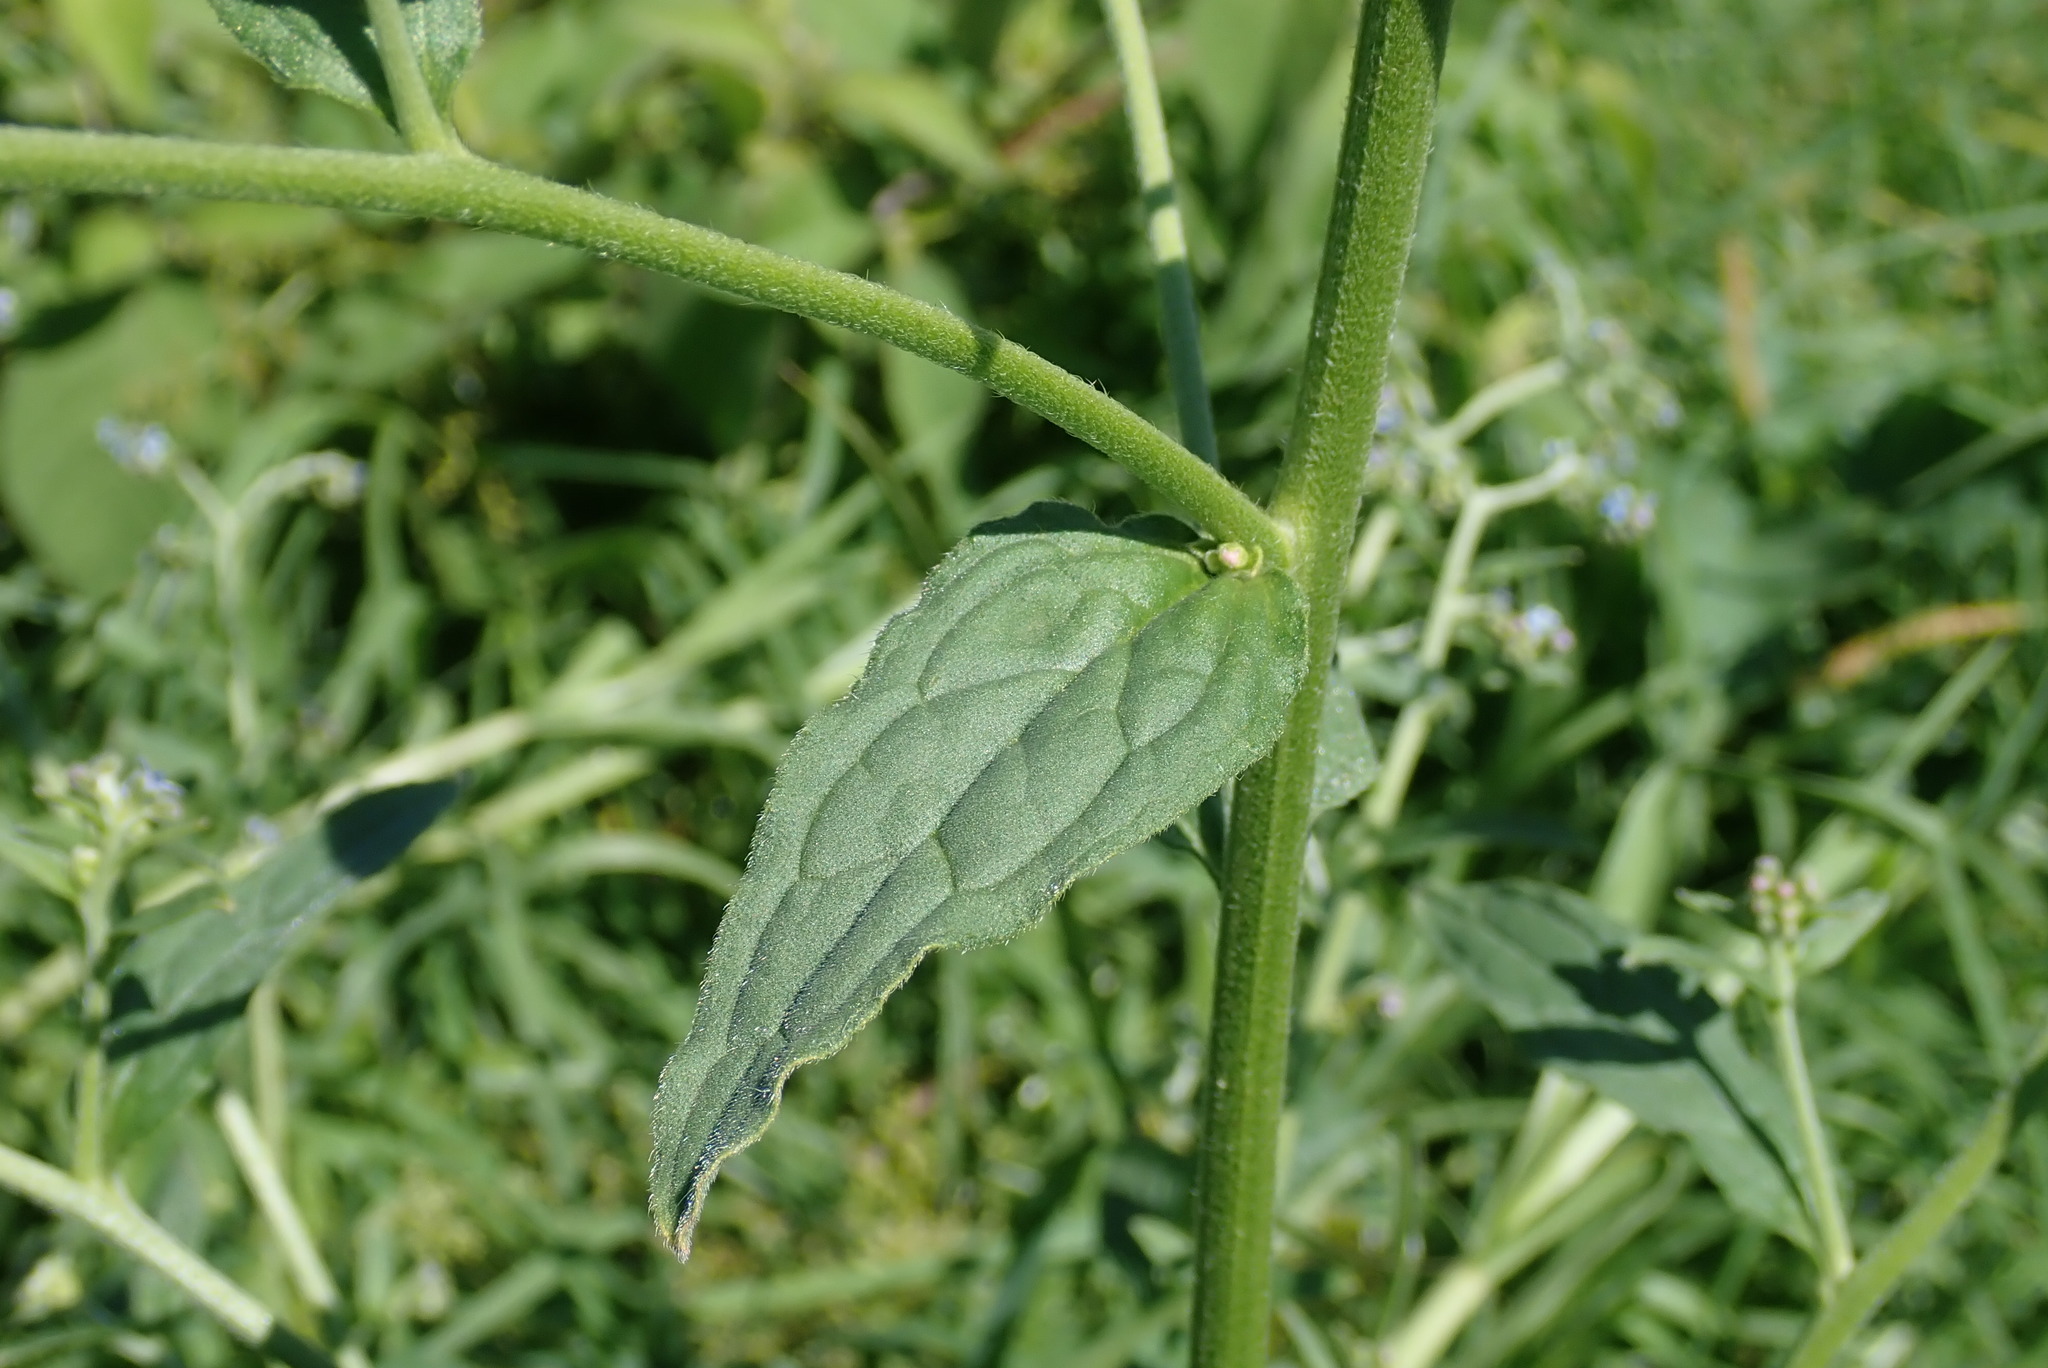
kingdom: Plantae
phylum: Tracheophyta
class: Magnoliopsida
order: Boraginales
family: Boraginaceae
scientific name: Boraginaceae
